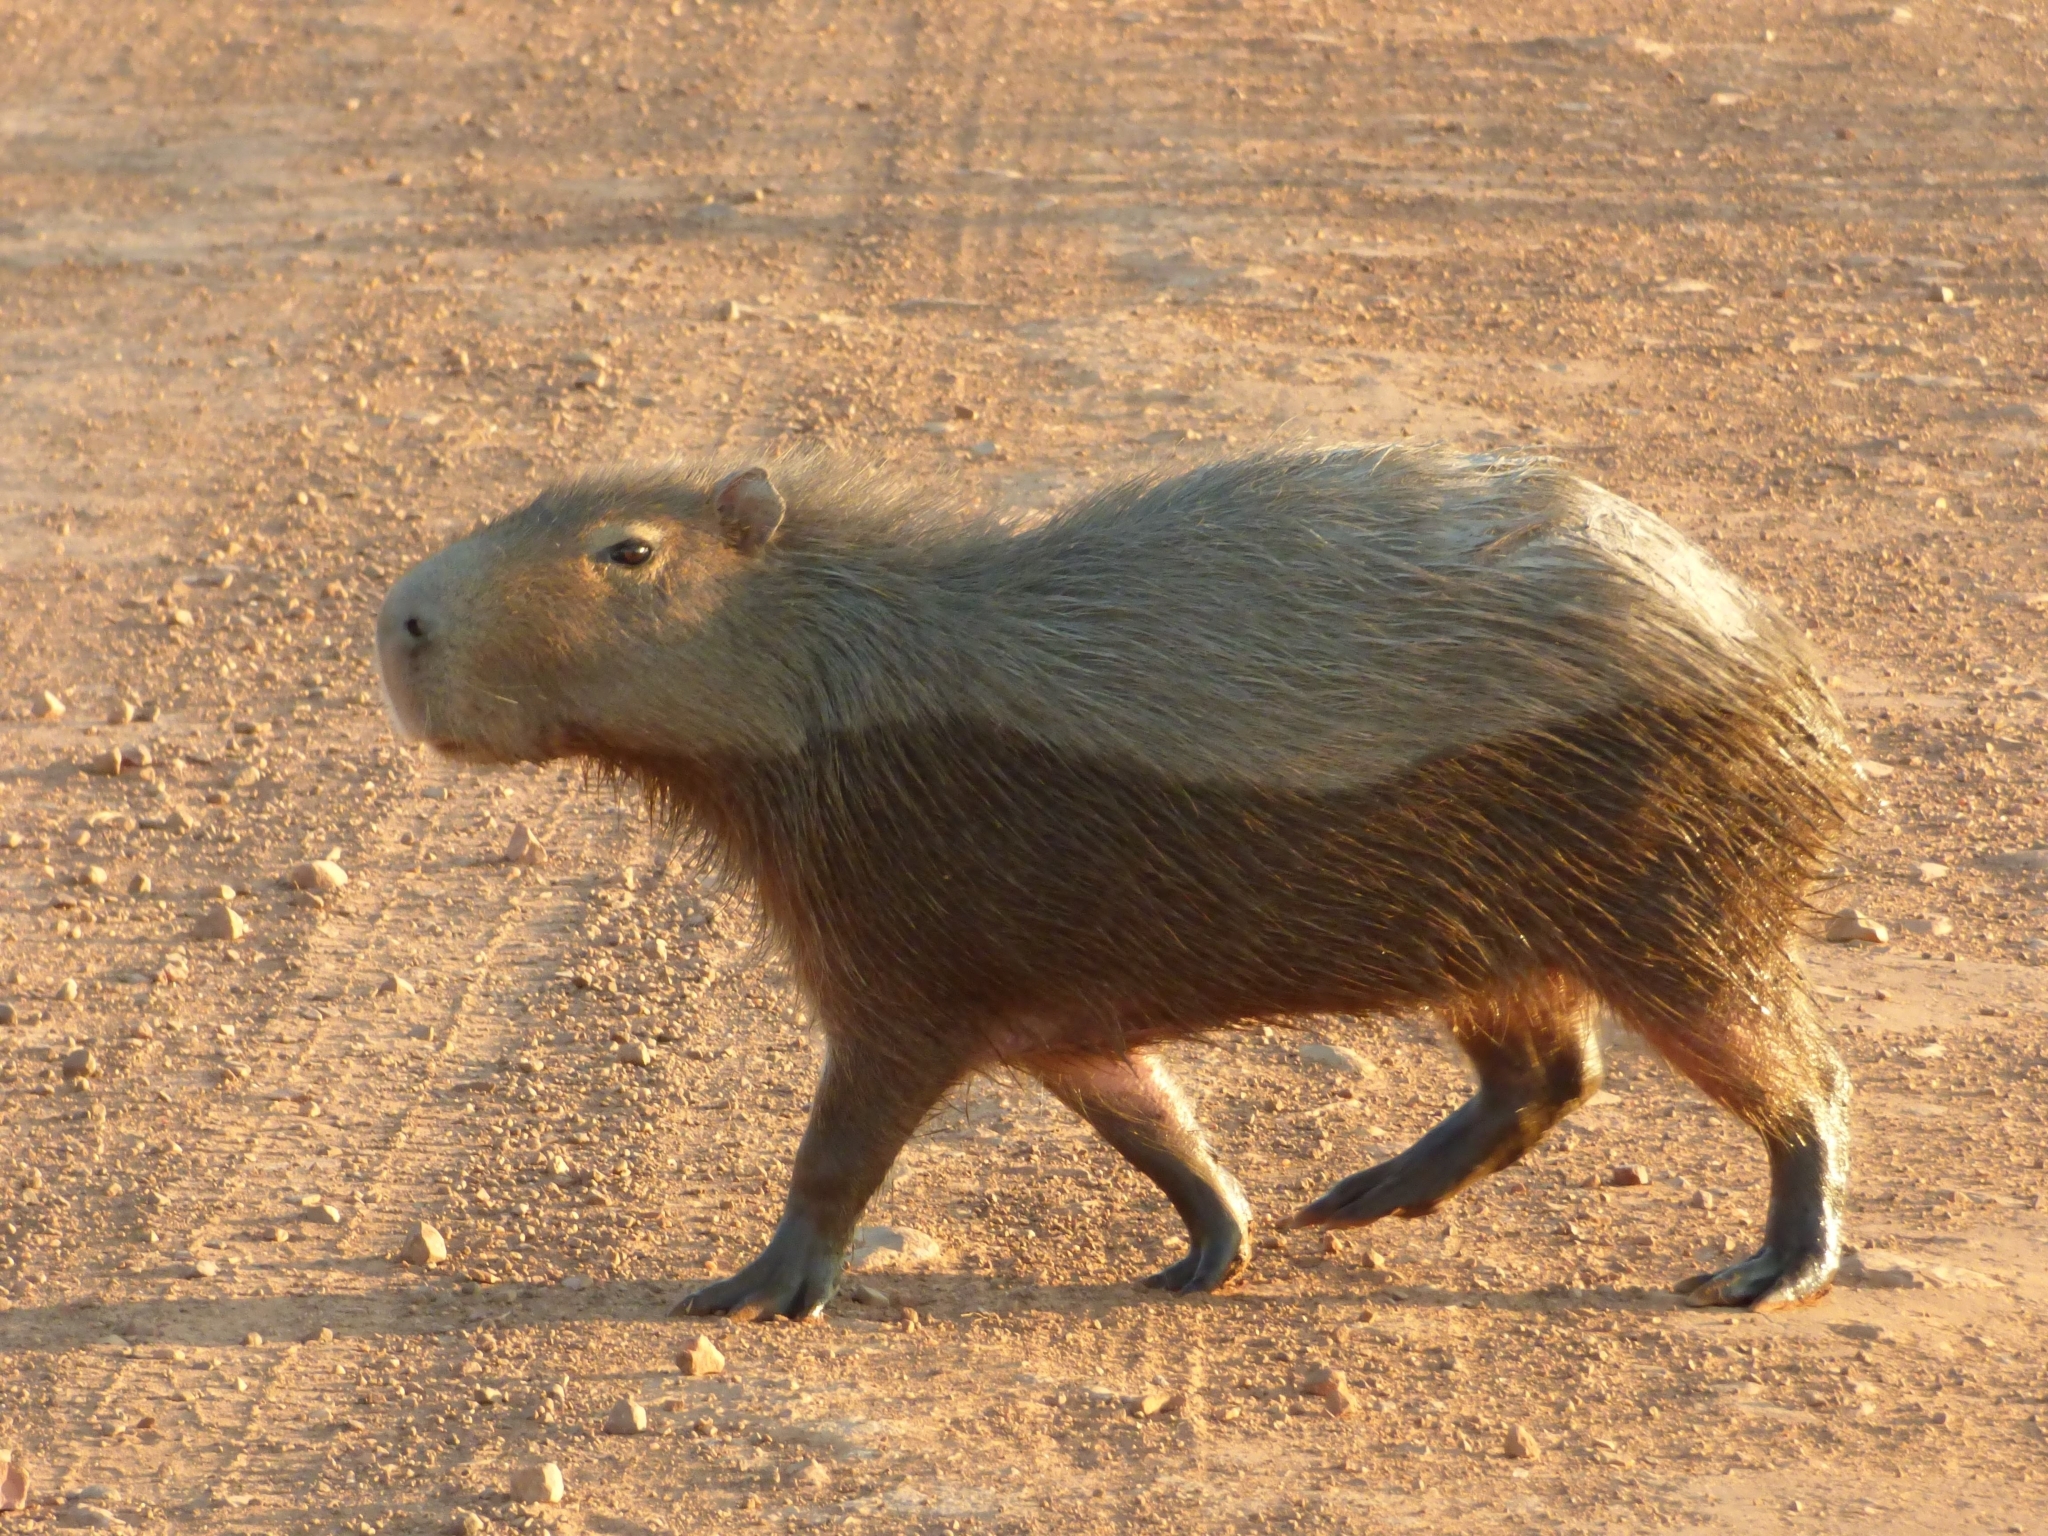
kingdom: Animalia
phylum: Chordata
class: Mammalia
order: Rodentia
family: Caviidae
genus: Hydrochoerus
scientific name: Hydrochoerus hydrochaeris
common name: Capybara
